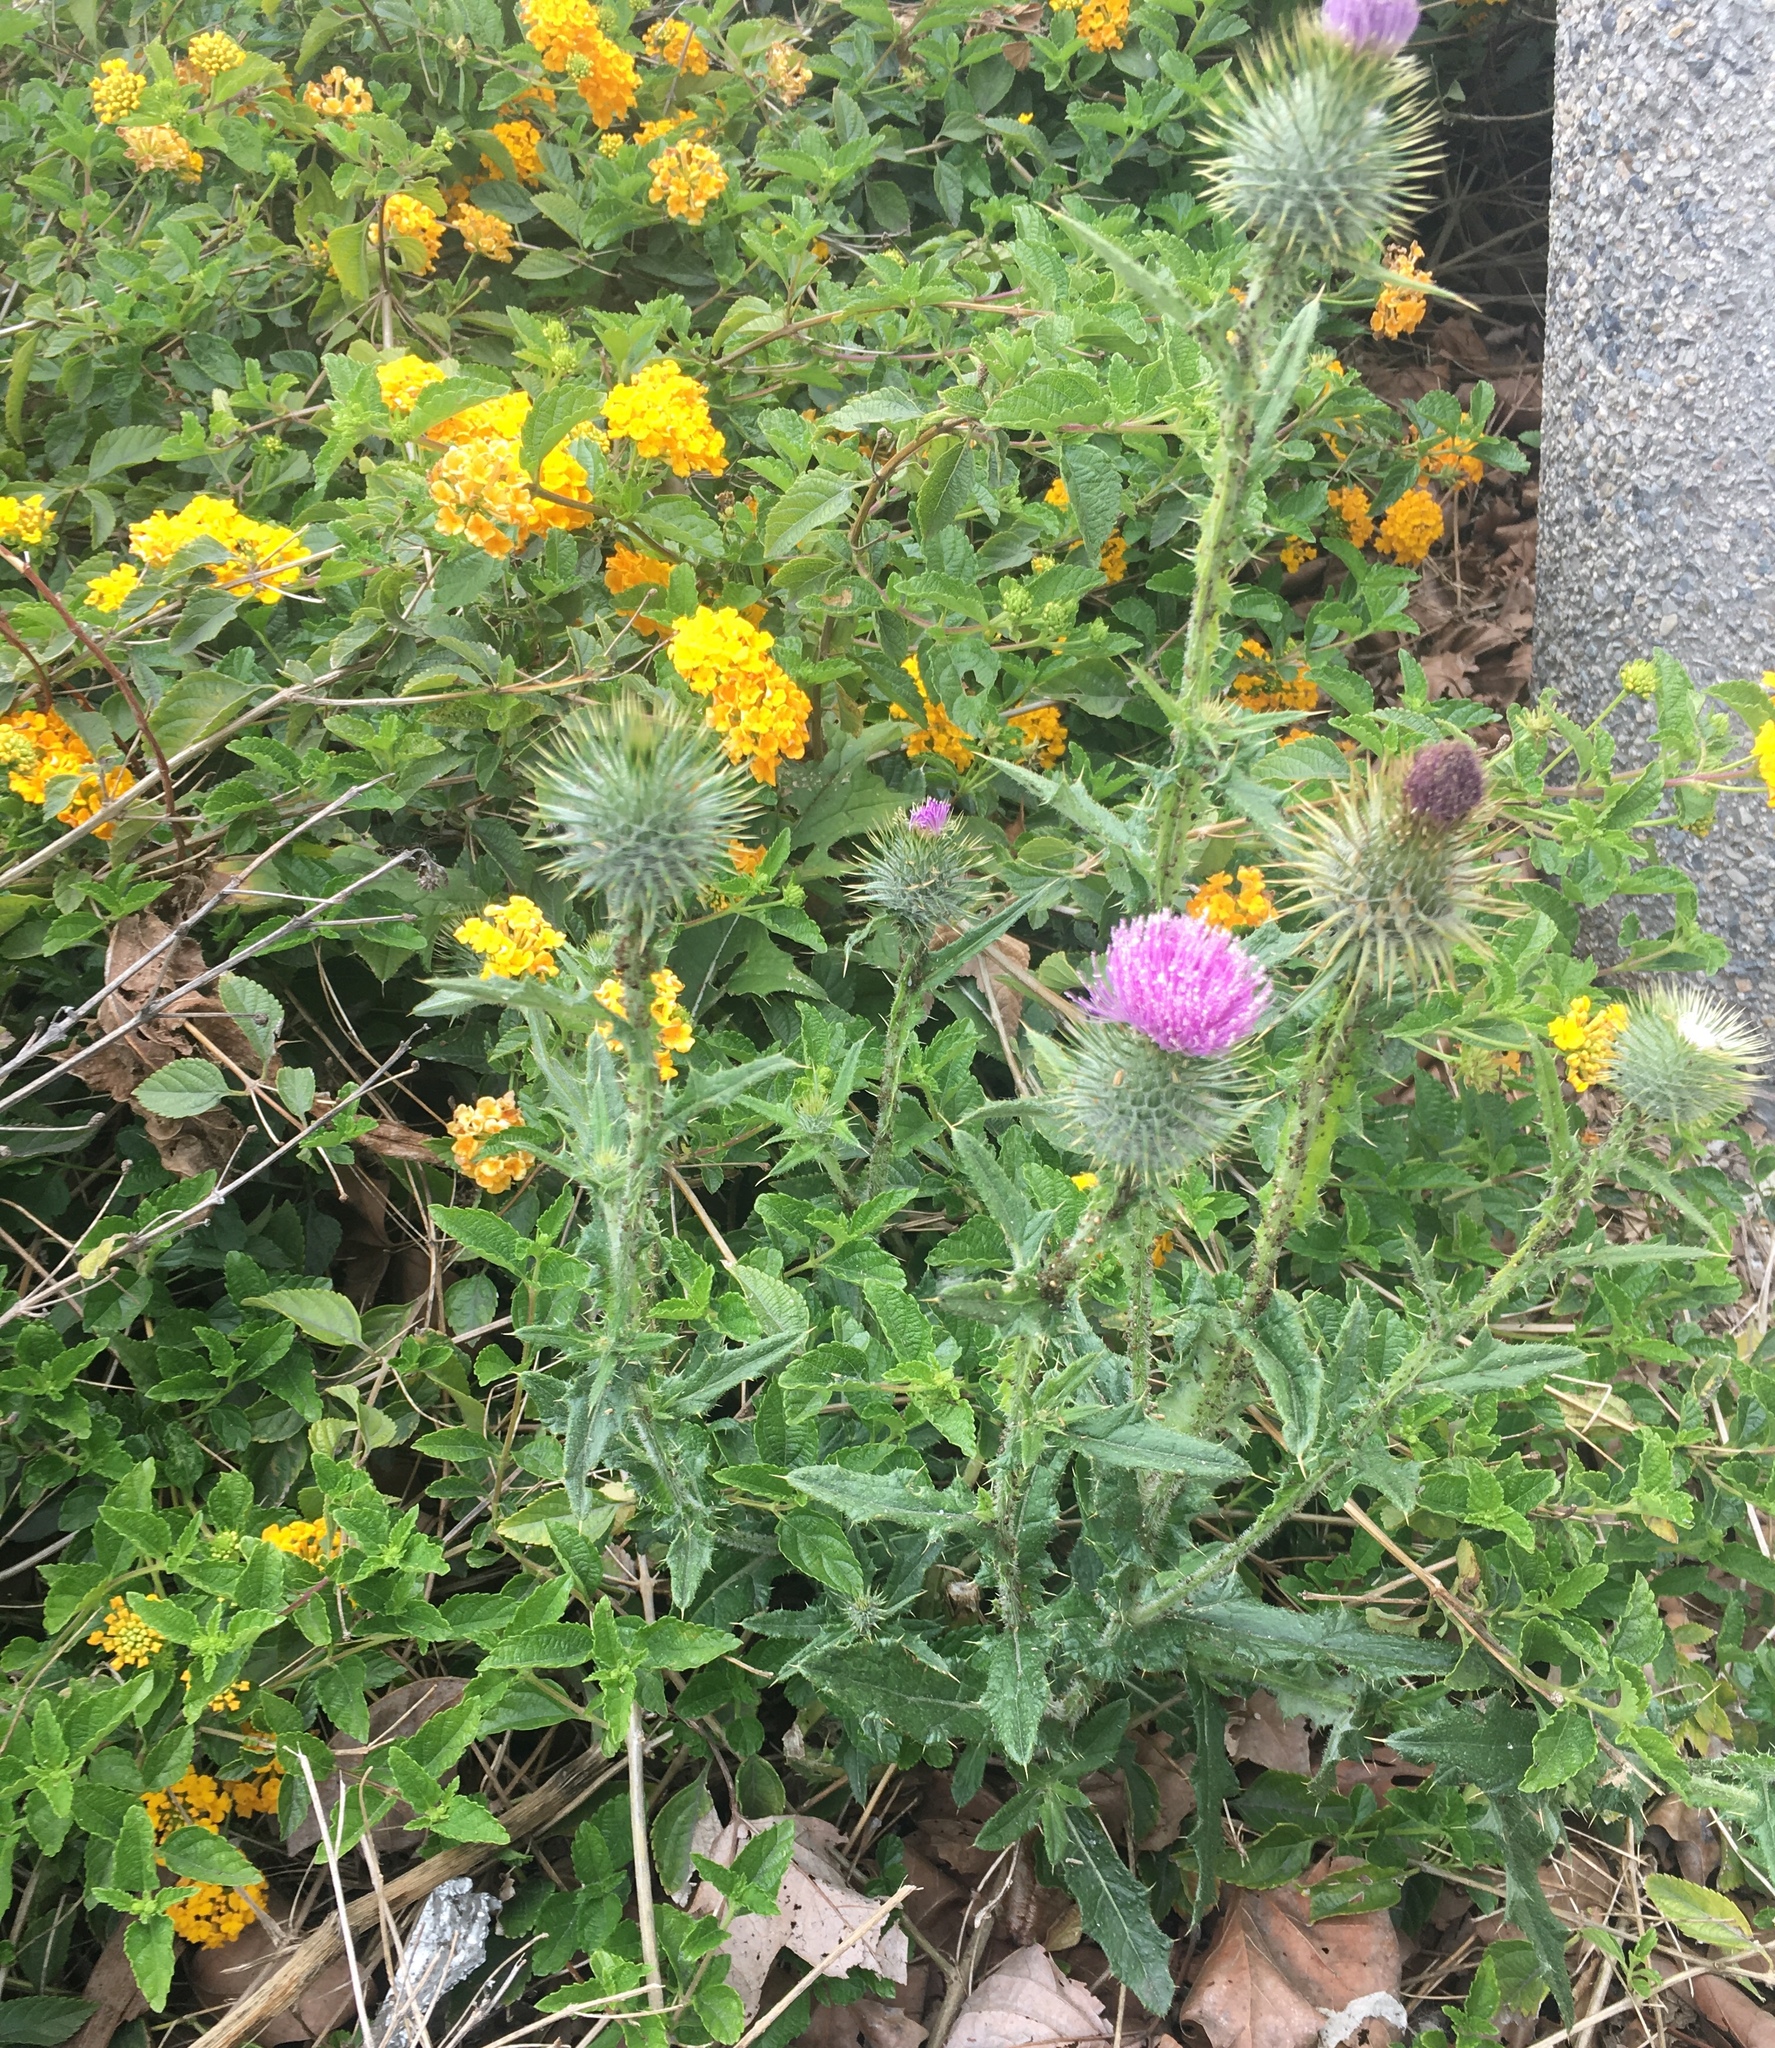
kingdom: Plantae
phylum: Tracheophyta
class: Magnoliopsida
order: Asterales
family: Asteraceae
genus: Cirsium
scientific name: Cirsium vulgare
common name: Bull thistle
